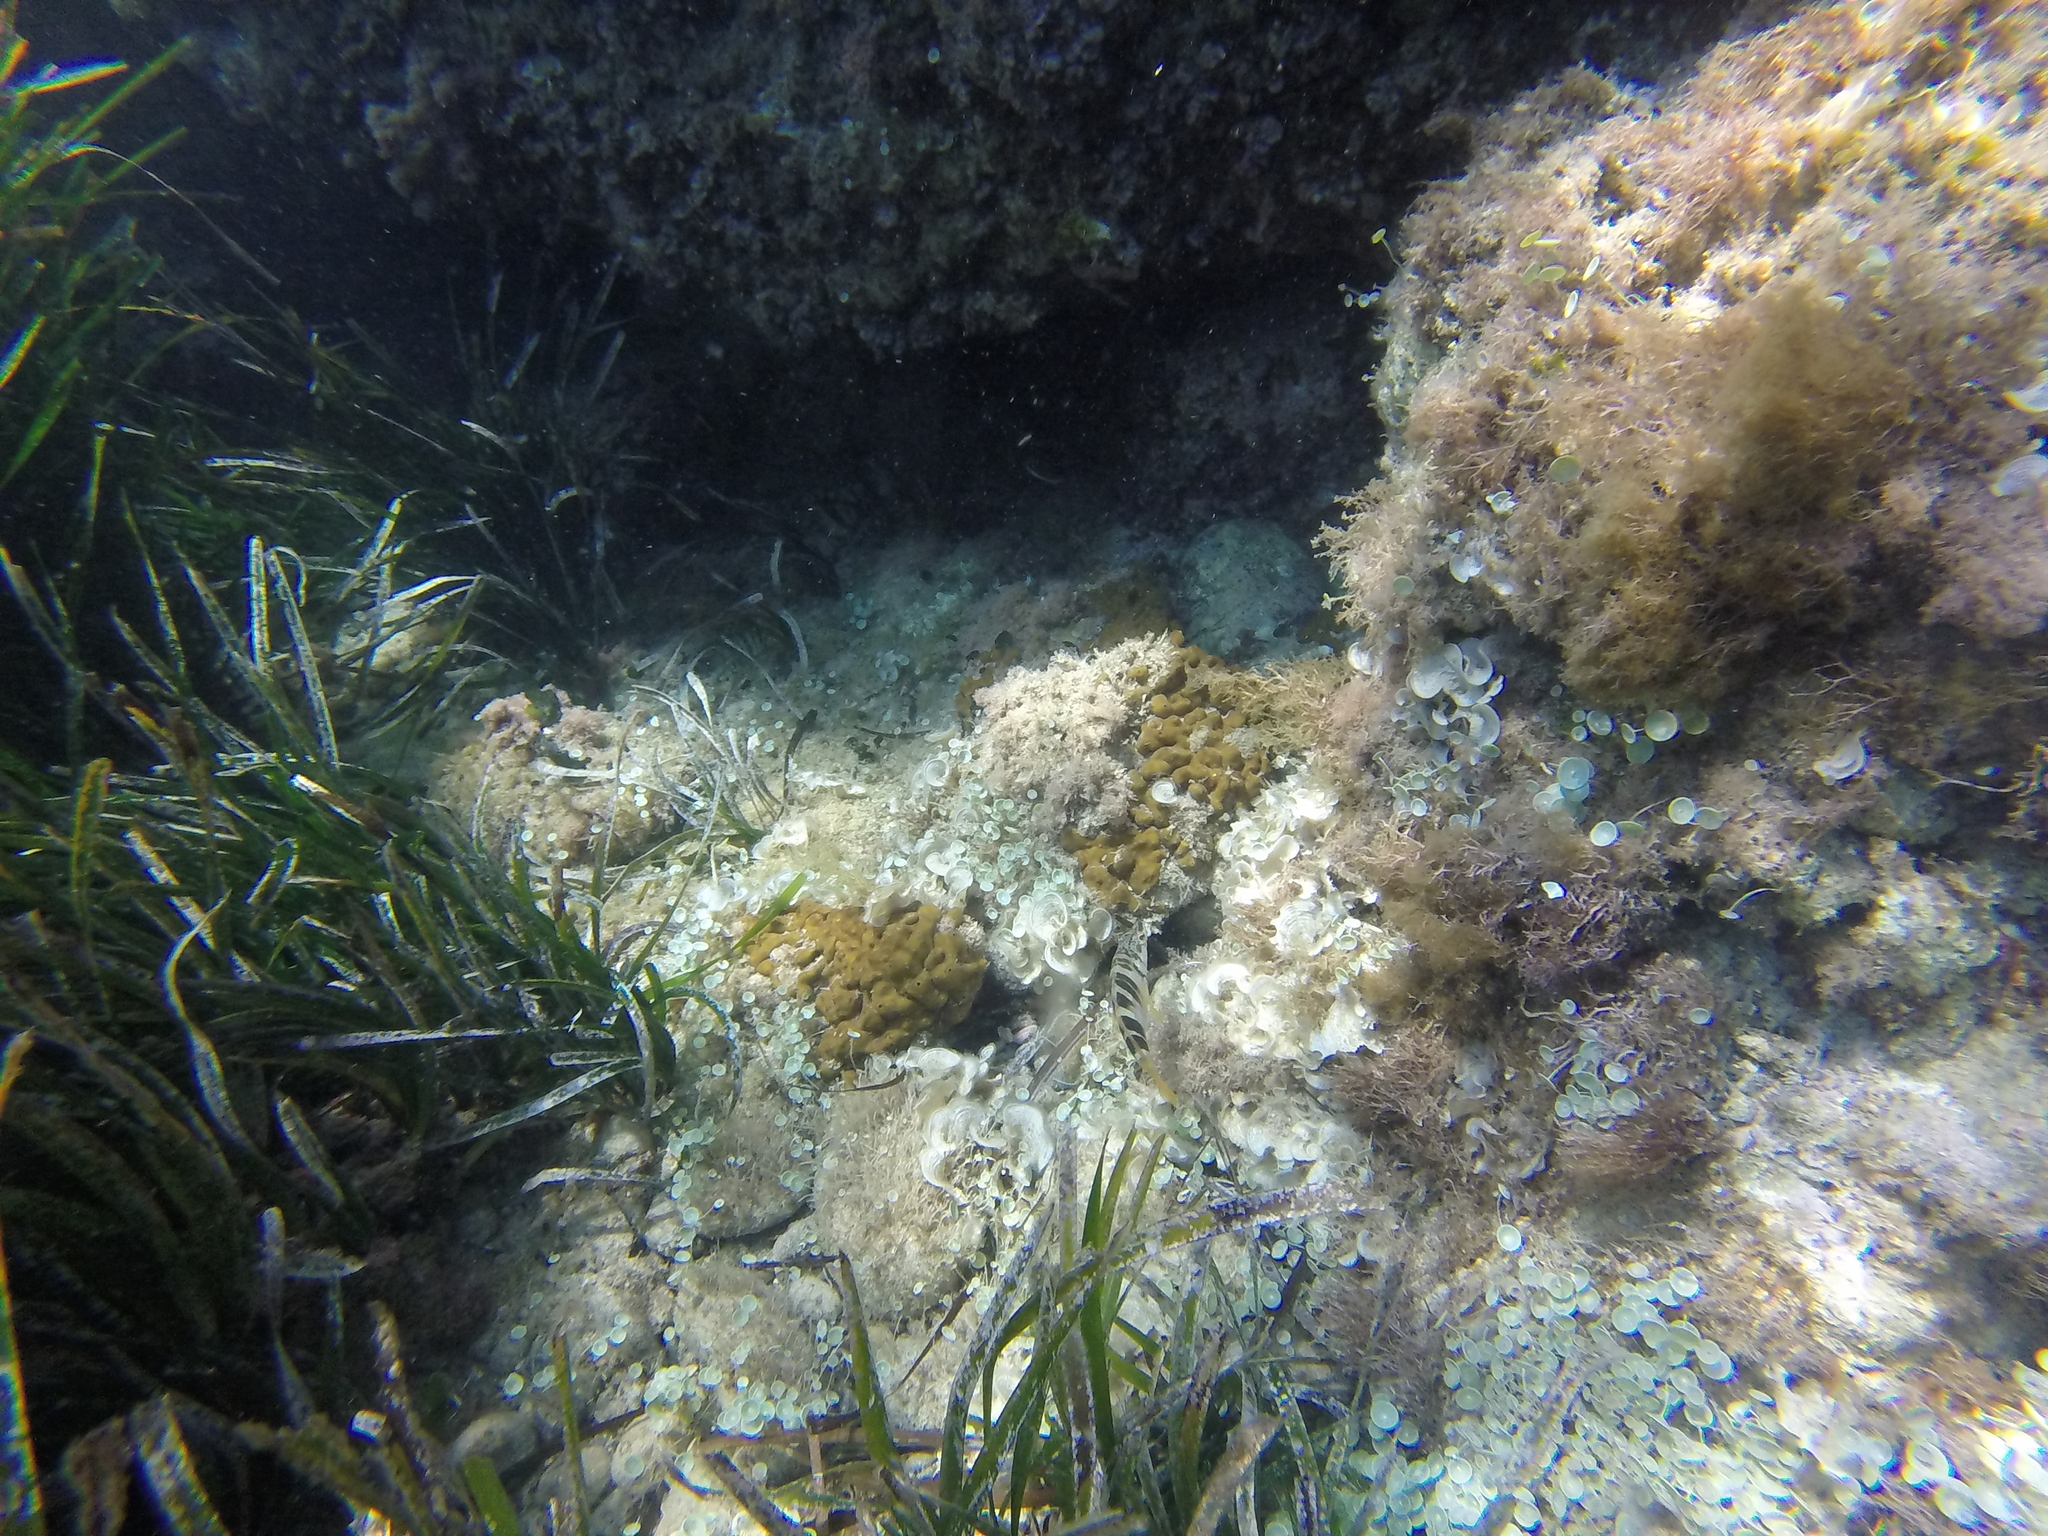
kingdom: Animalia
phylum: Chordata
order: Perciformes
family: Serranidae
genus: Serranus
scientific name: Serranus scriba
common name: Painted comber
